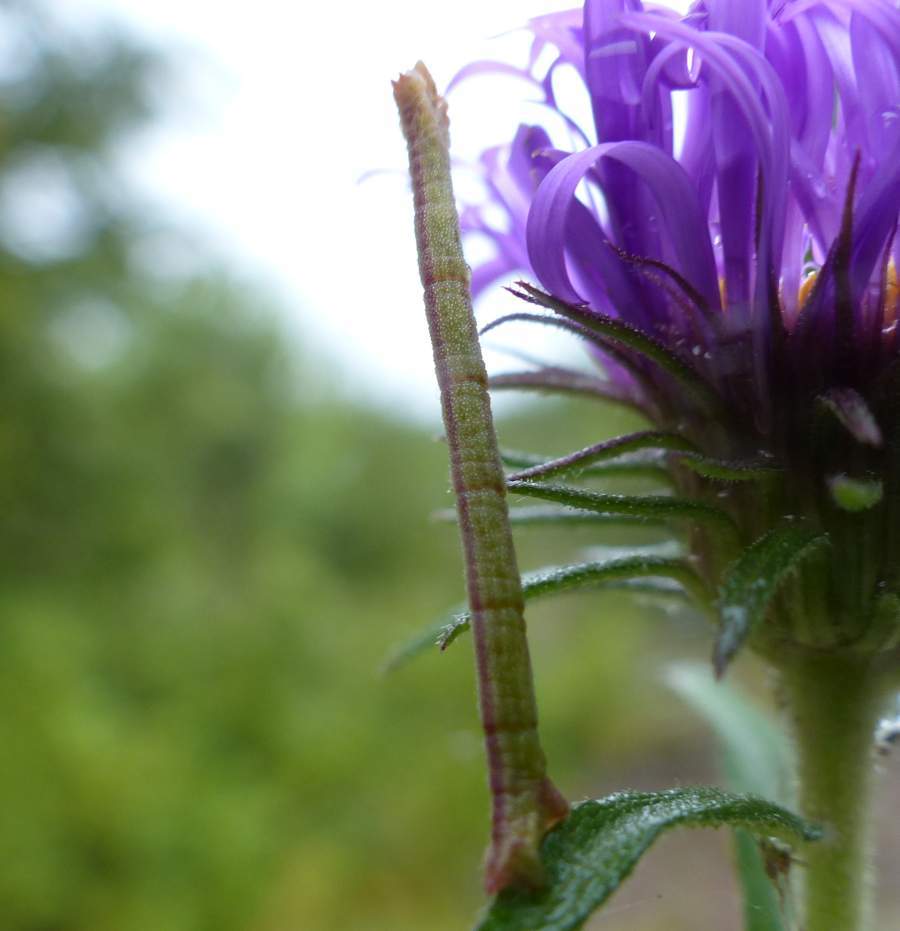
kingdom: Animalia
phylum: Arthropoda
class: Insecta
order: Lepidoptera
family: Geometridae
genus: Chlorochlamys
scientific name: Chlorochlamys chloroleucaria
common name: Blackberry looper
